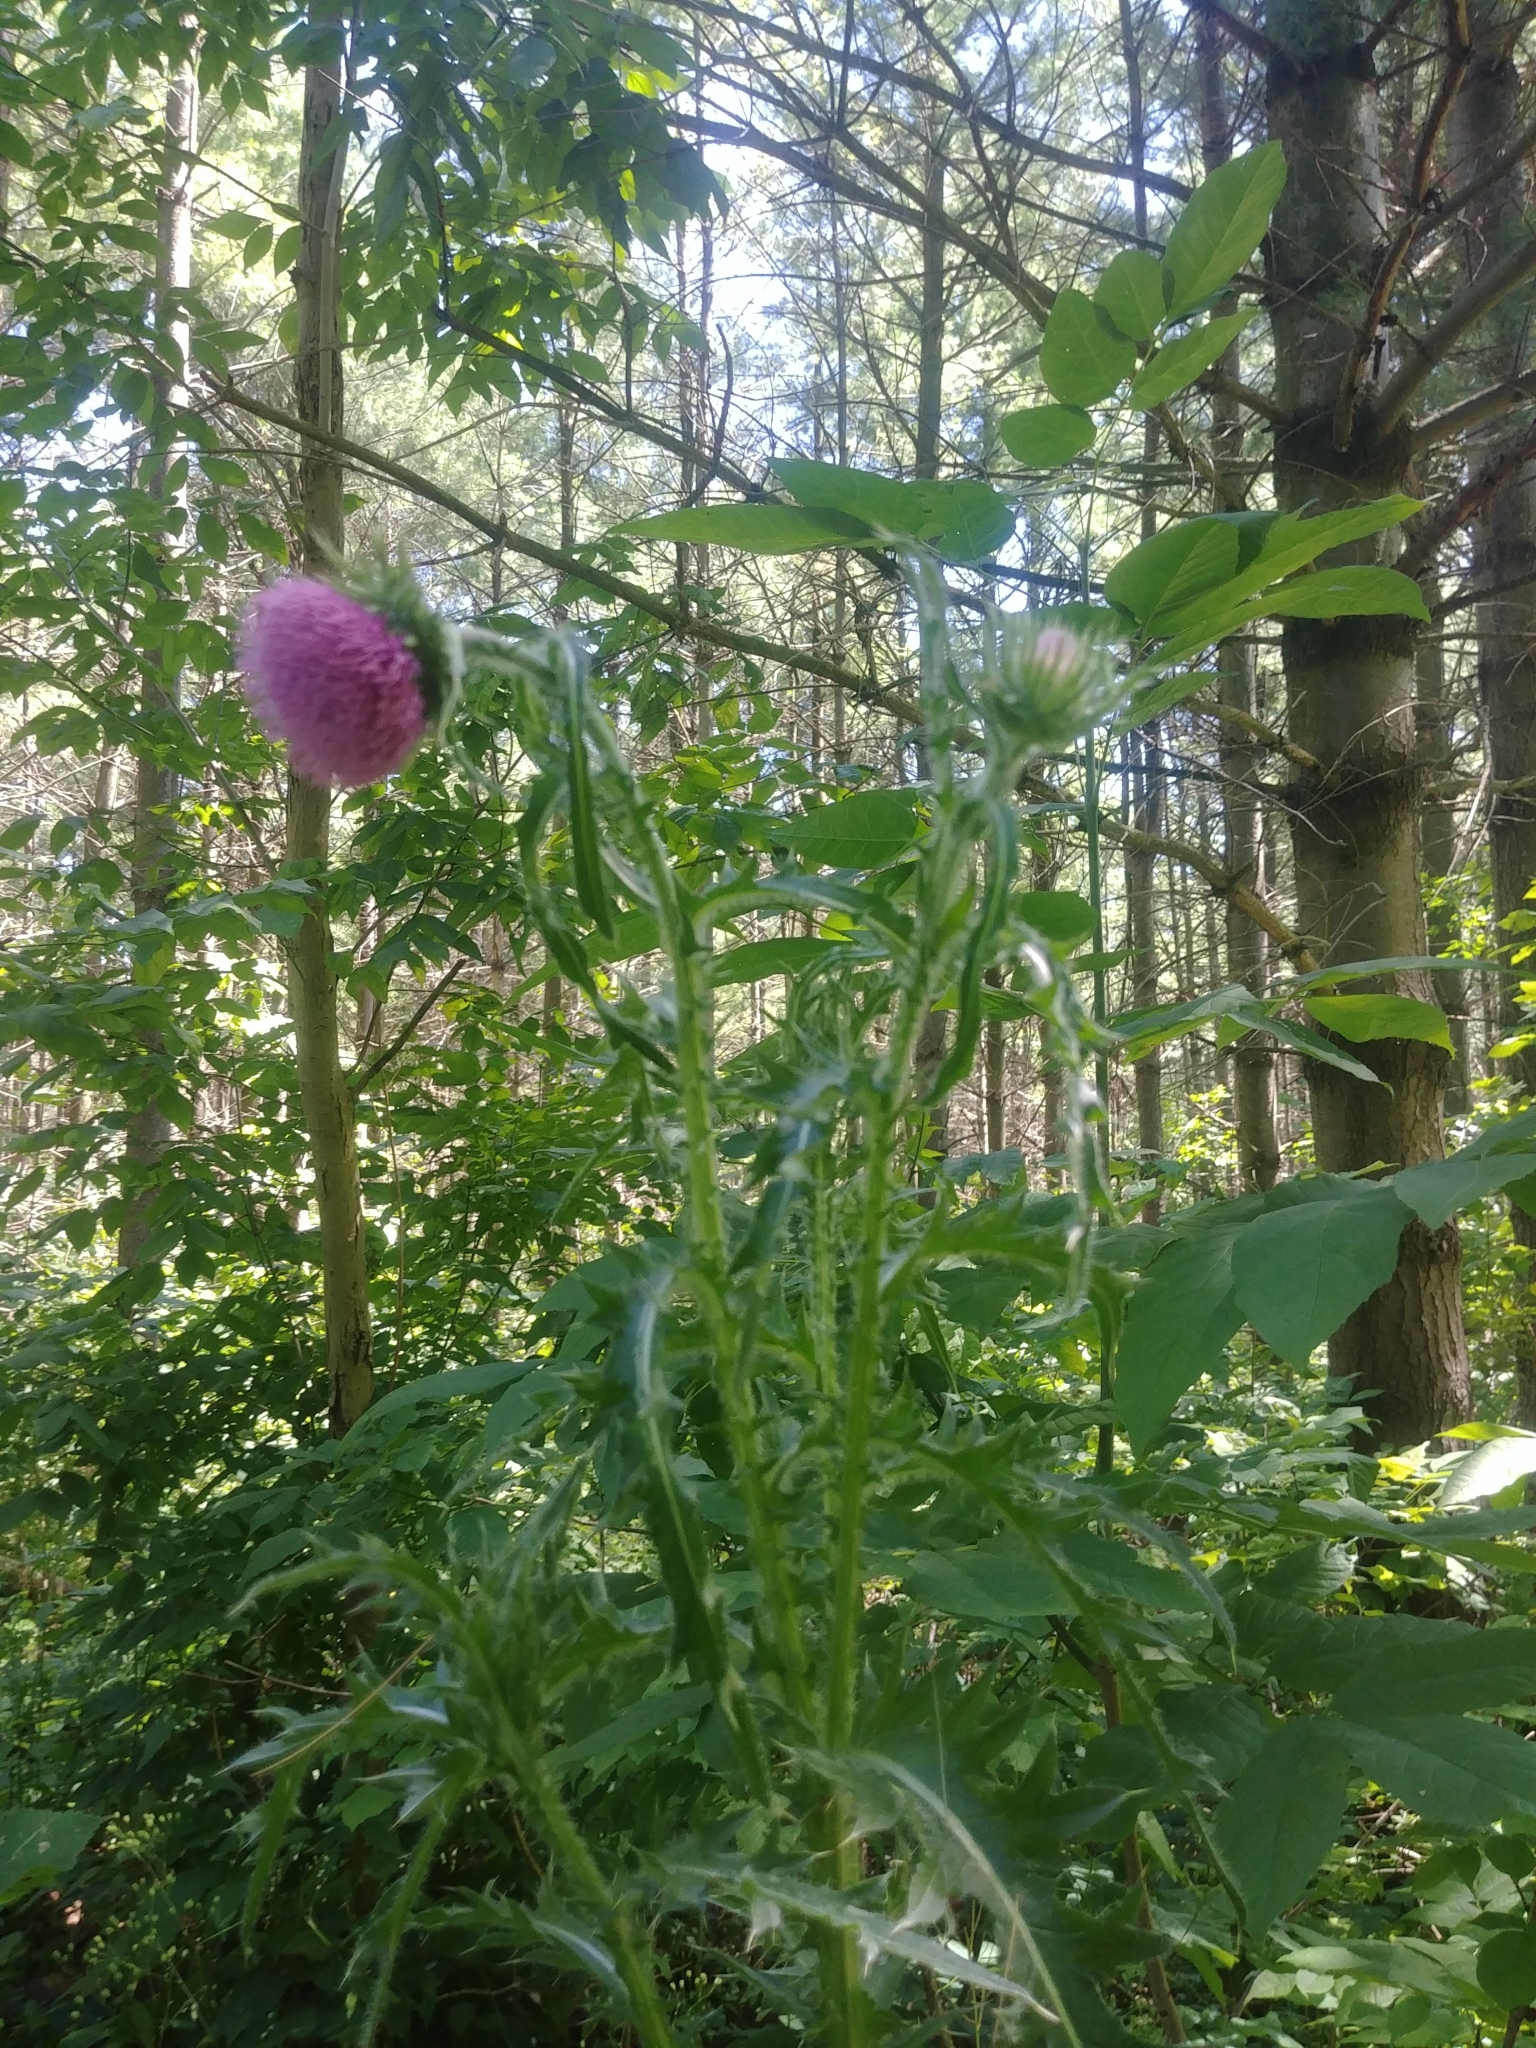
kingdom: Plantae
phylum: Tracheophyta
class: Magnoliopsida
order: Asterales
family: Asteraceae
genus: Carduus
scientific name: Carduus nutans
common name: Musk thistle
